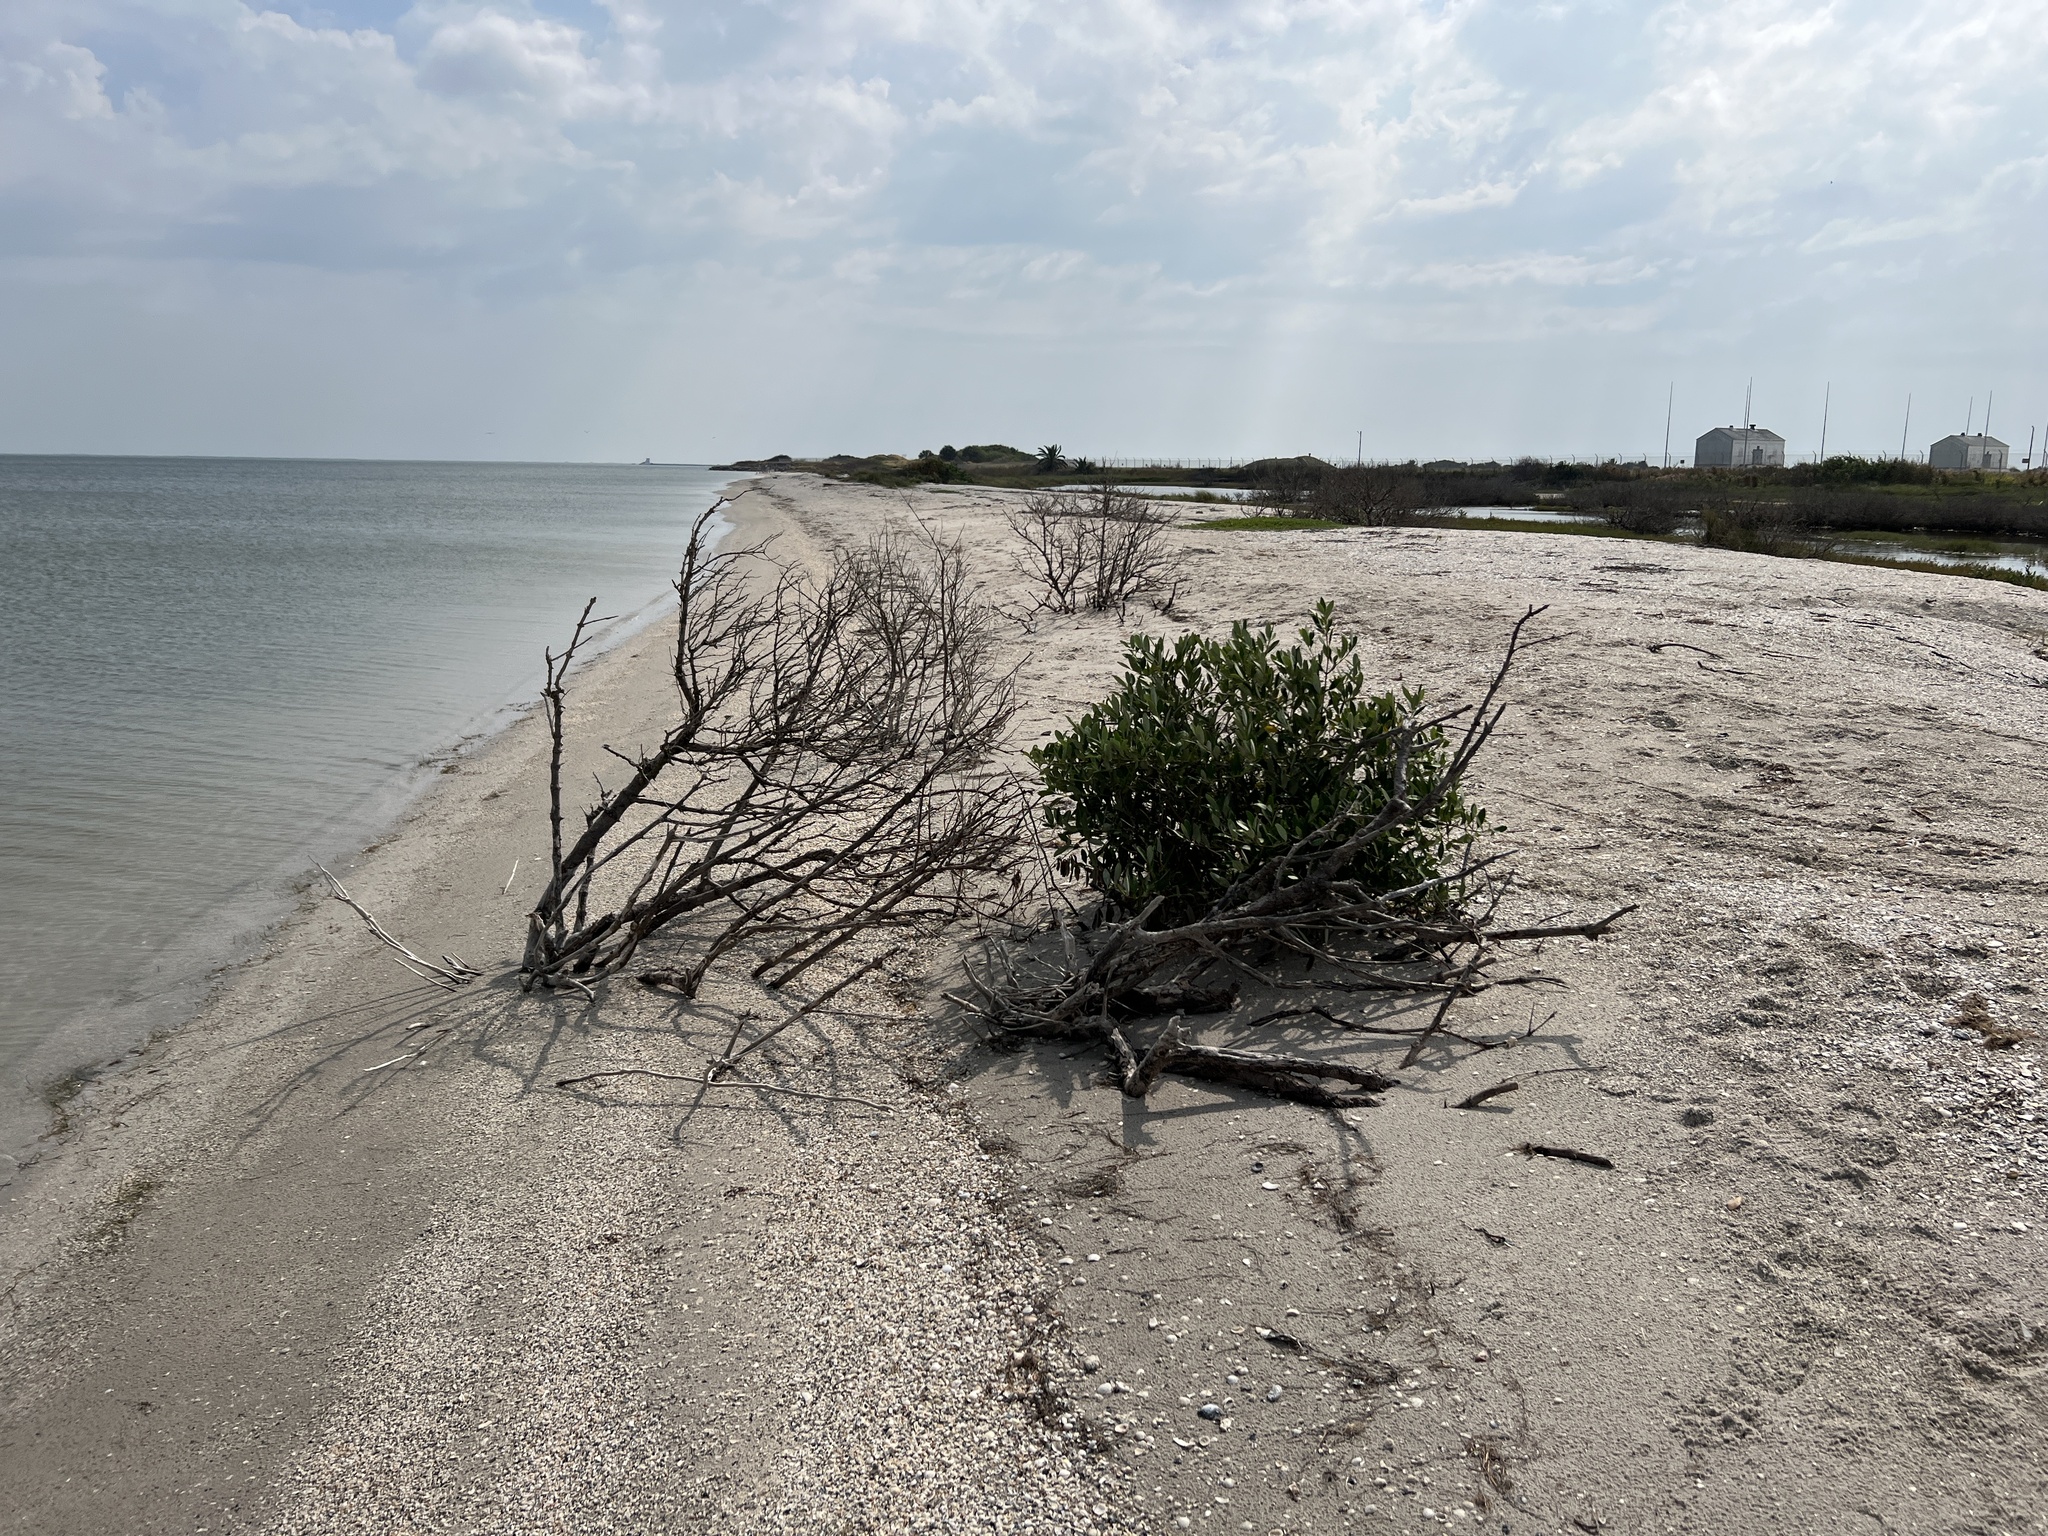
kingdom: Plantae
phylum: Tracheophyta
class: Magnoliopsida
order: Lamiales
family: Acanthaceae
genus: Avicennia
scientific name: Avicennia germinans
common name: Black mangrove
